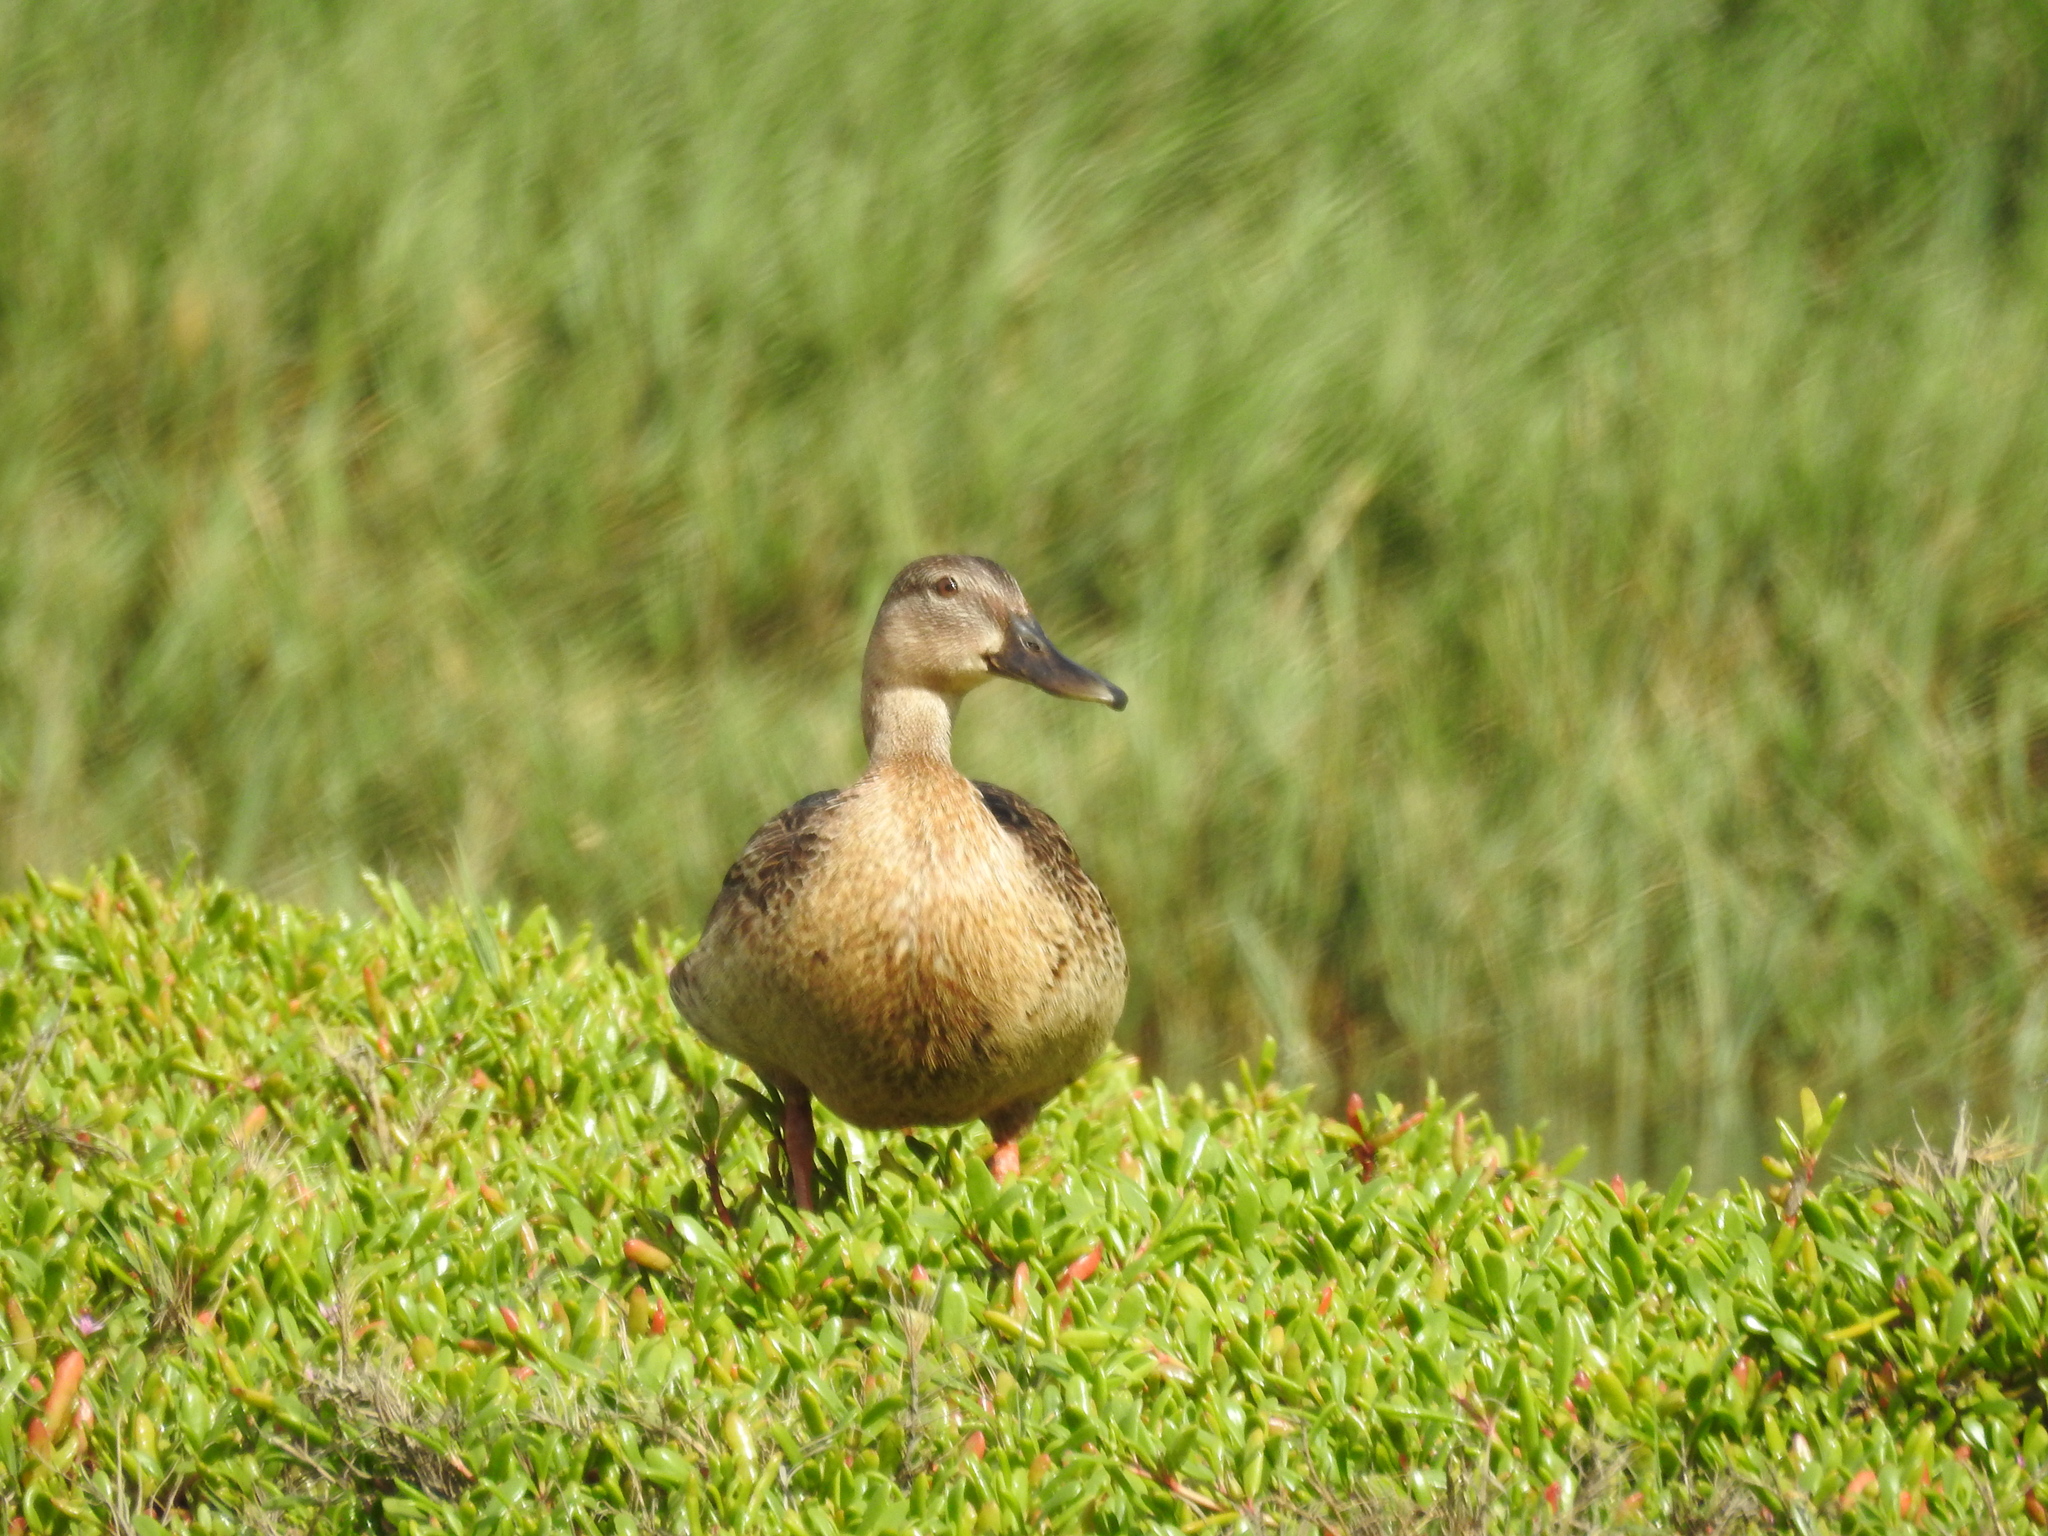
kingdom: Animalia
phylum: Chordata
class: Aves
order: Anseriformes
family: Anatidae
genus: Anas
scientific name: Anas
